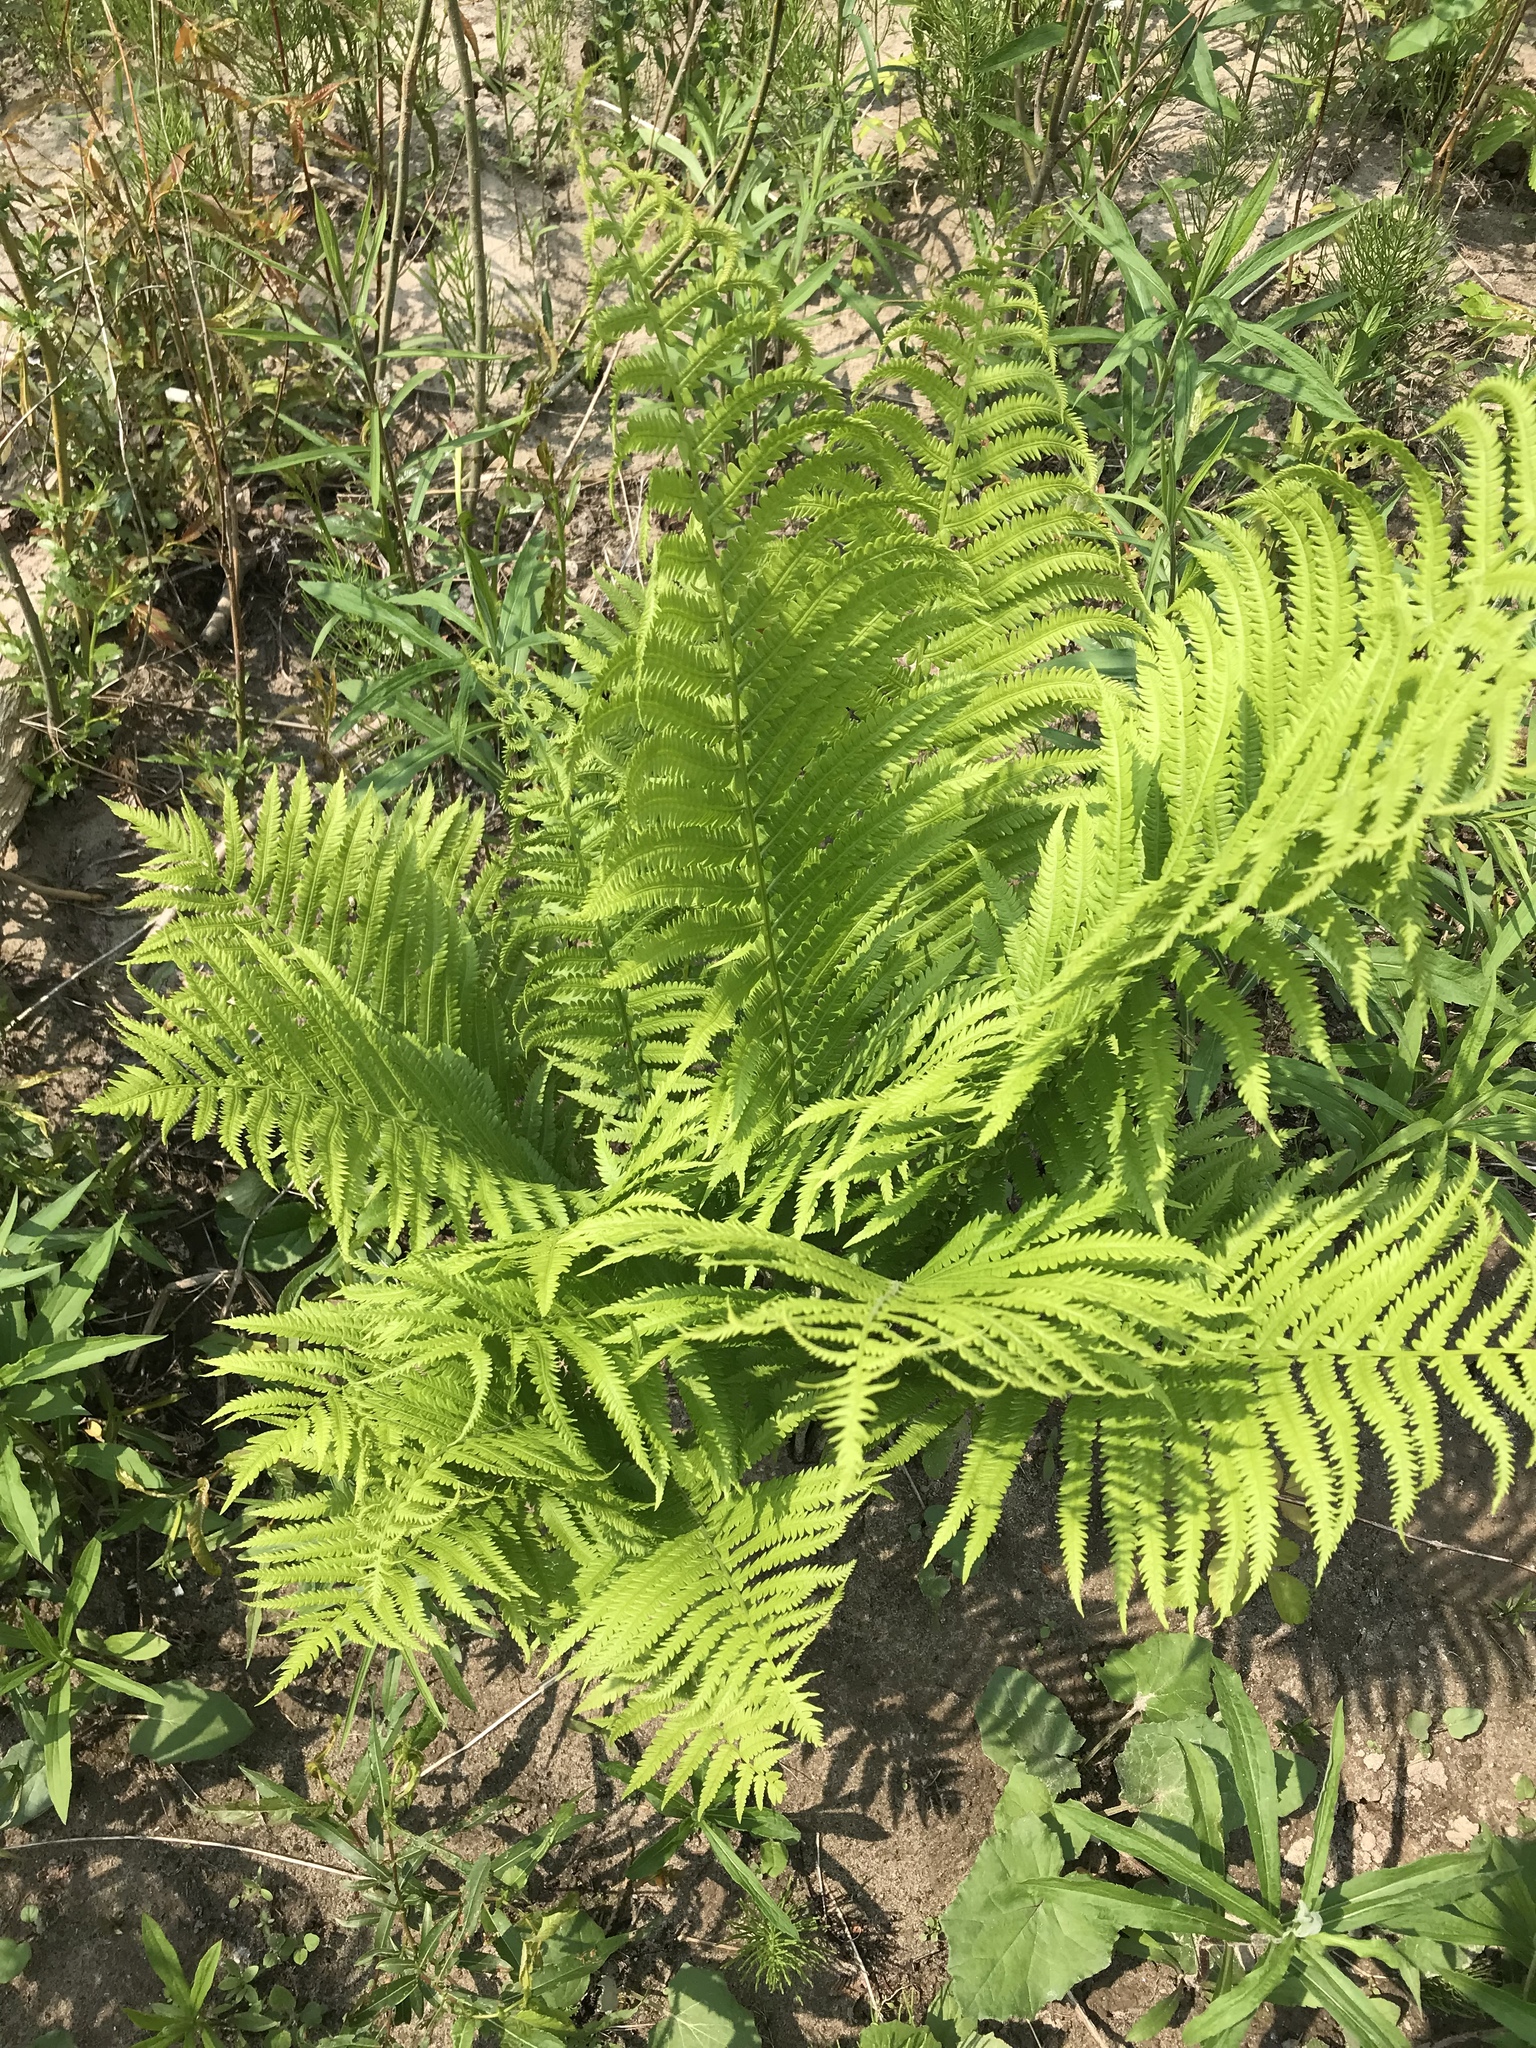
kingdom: Plantae
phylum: Tracheophyta
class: Polypodiopsida
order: Polypodiales
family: Onocleaceae
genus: Matteuccia
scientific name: Matteuccia struthiopteris
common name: Ostrich fern
